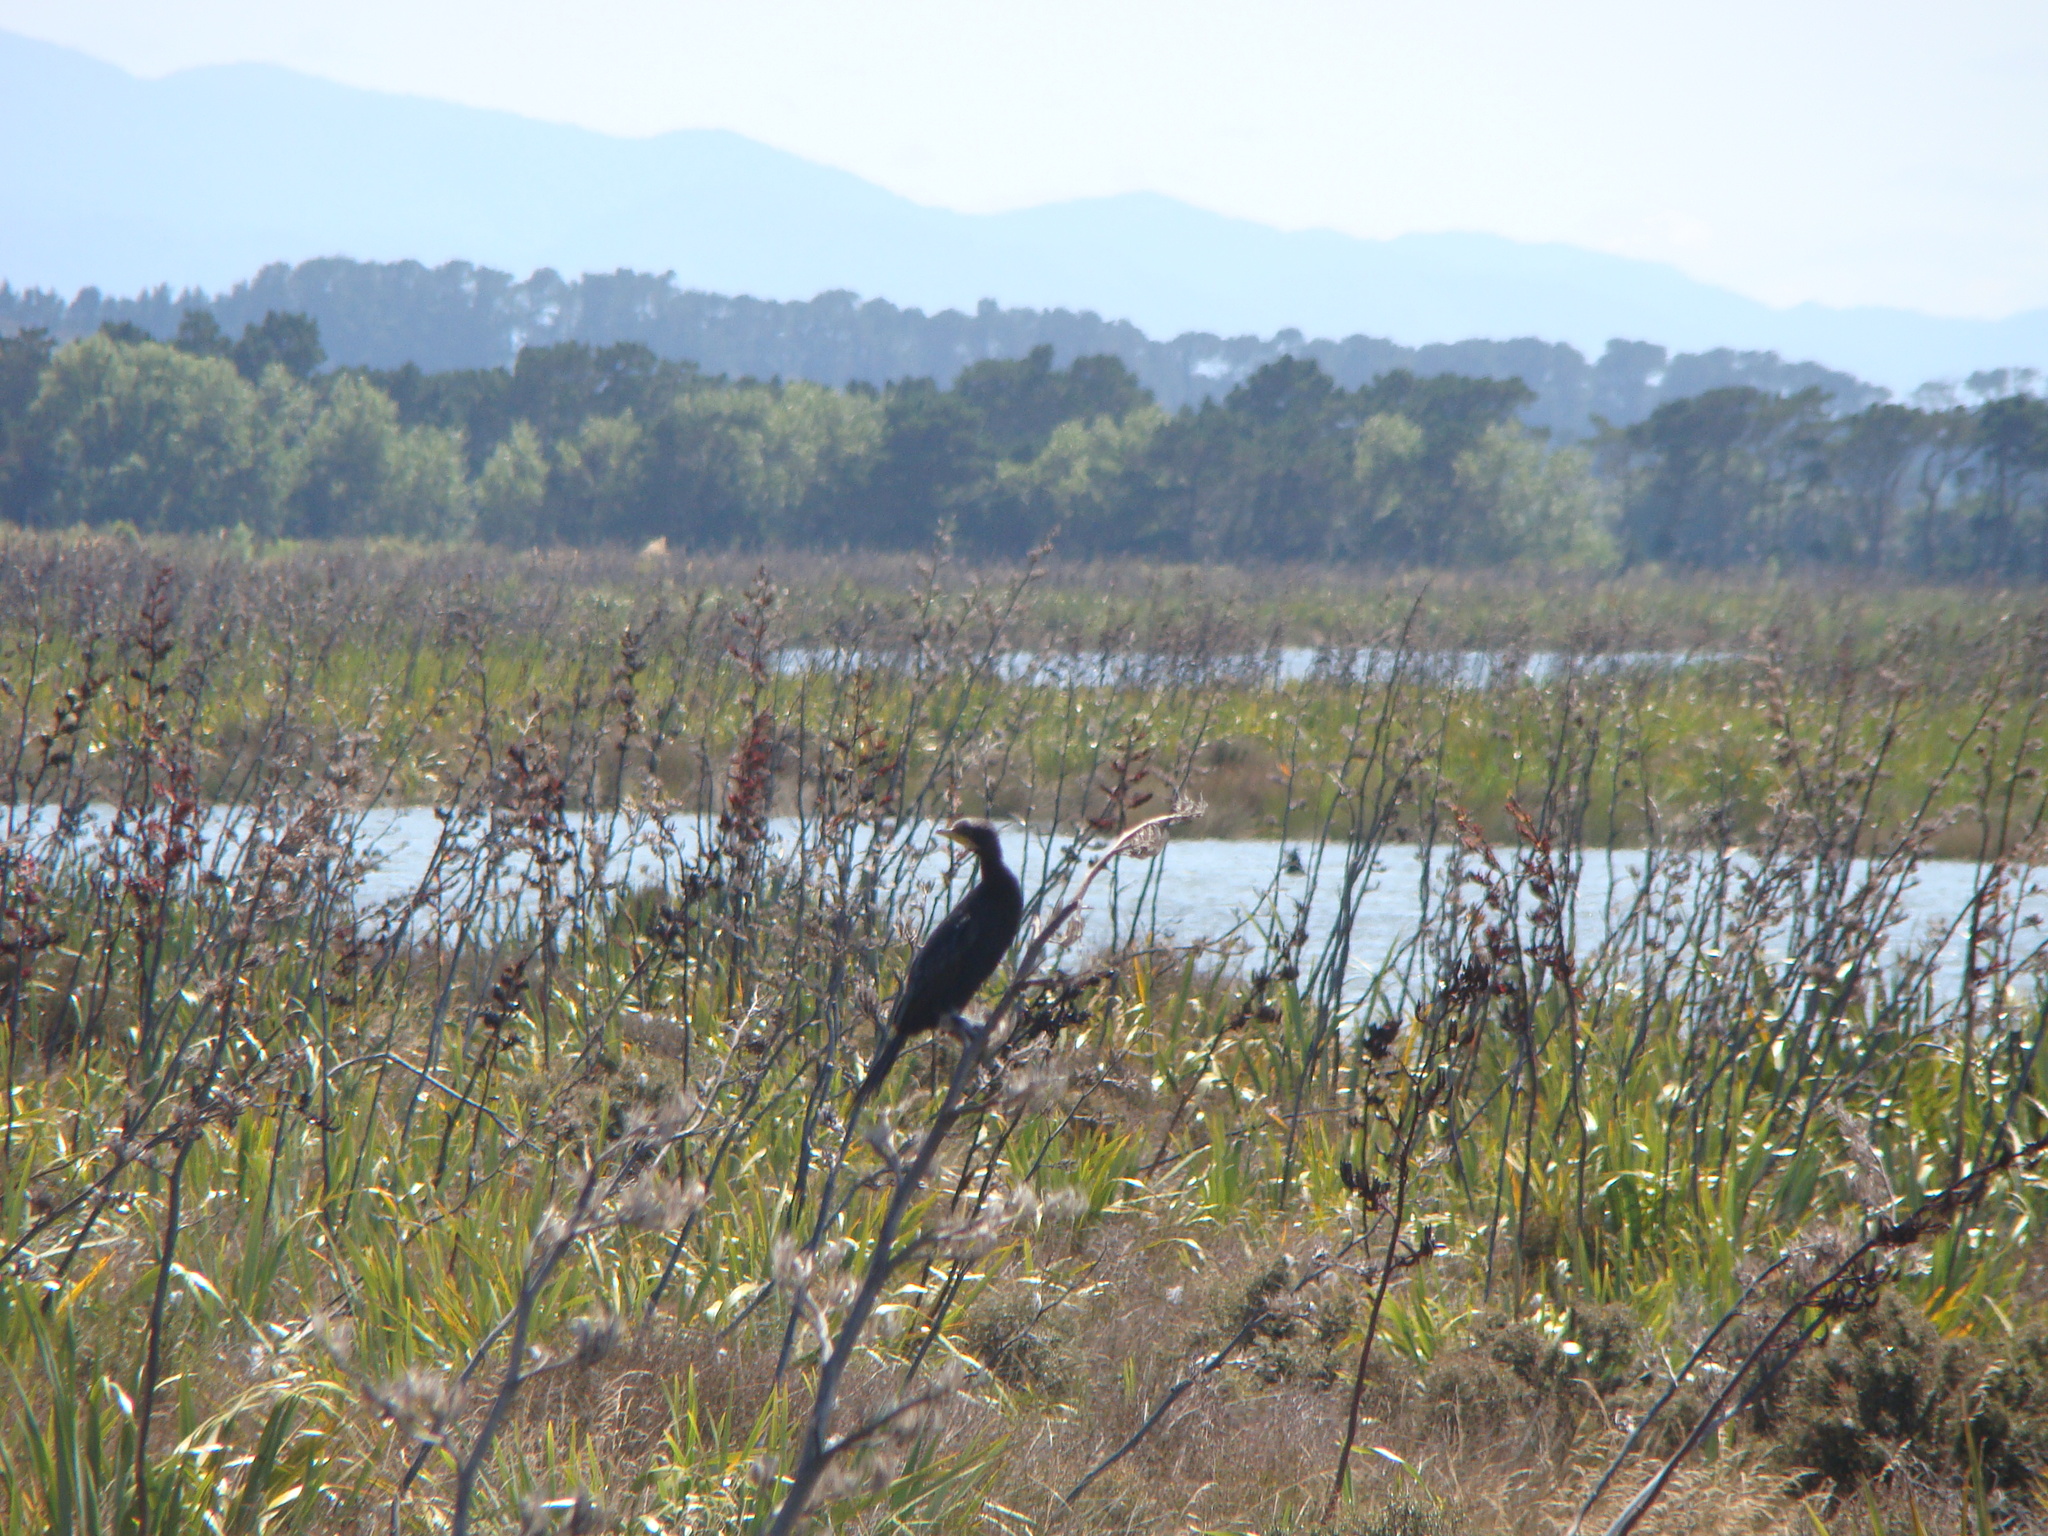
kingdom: Animalia
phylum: Chordata
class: Aves
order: Suliformes
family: Phalacrocoracidae
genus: Microcarbo
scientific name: Microcarbo melanoleucos
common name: Little pied cormorant
